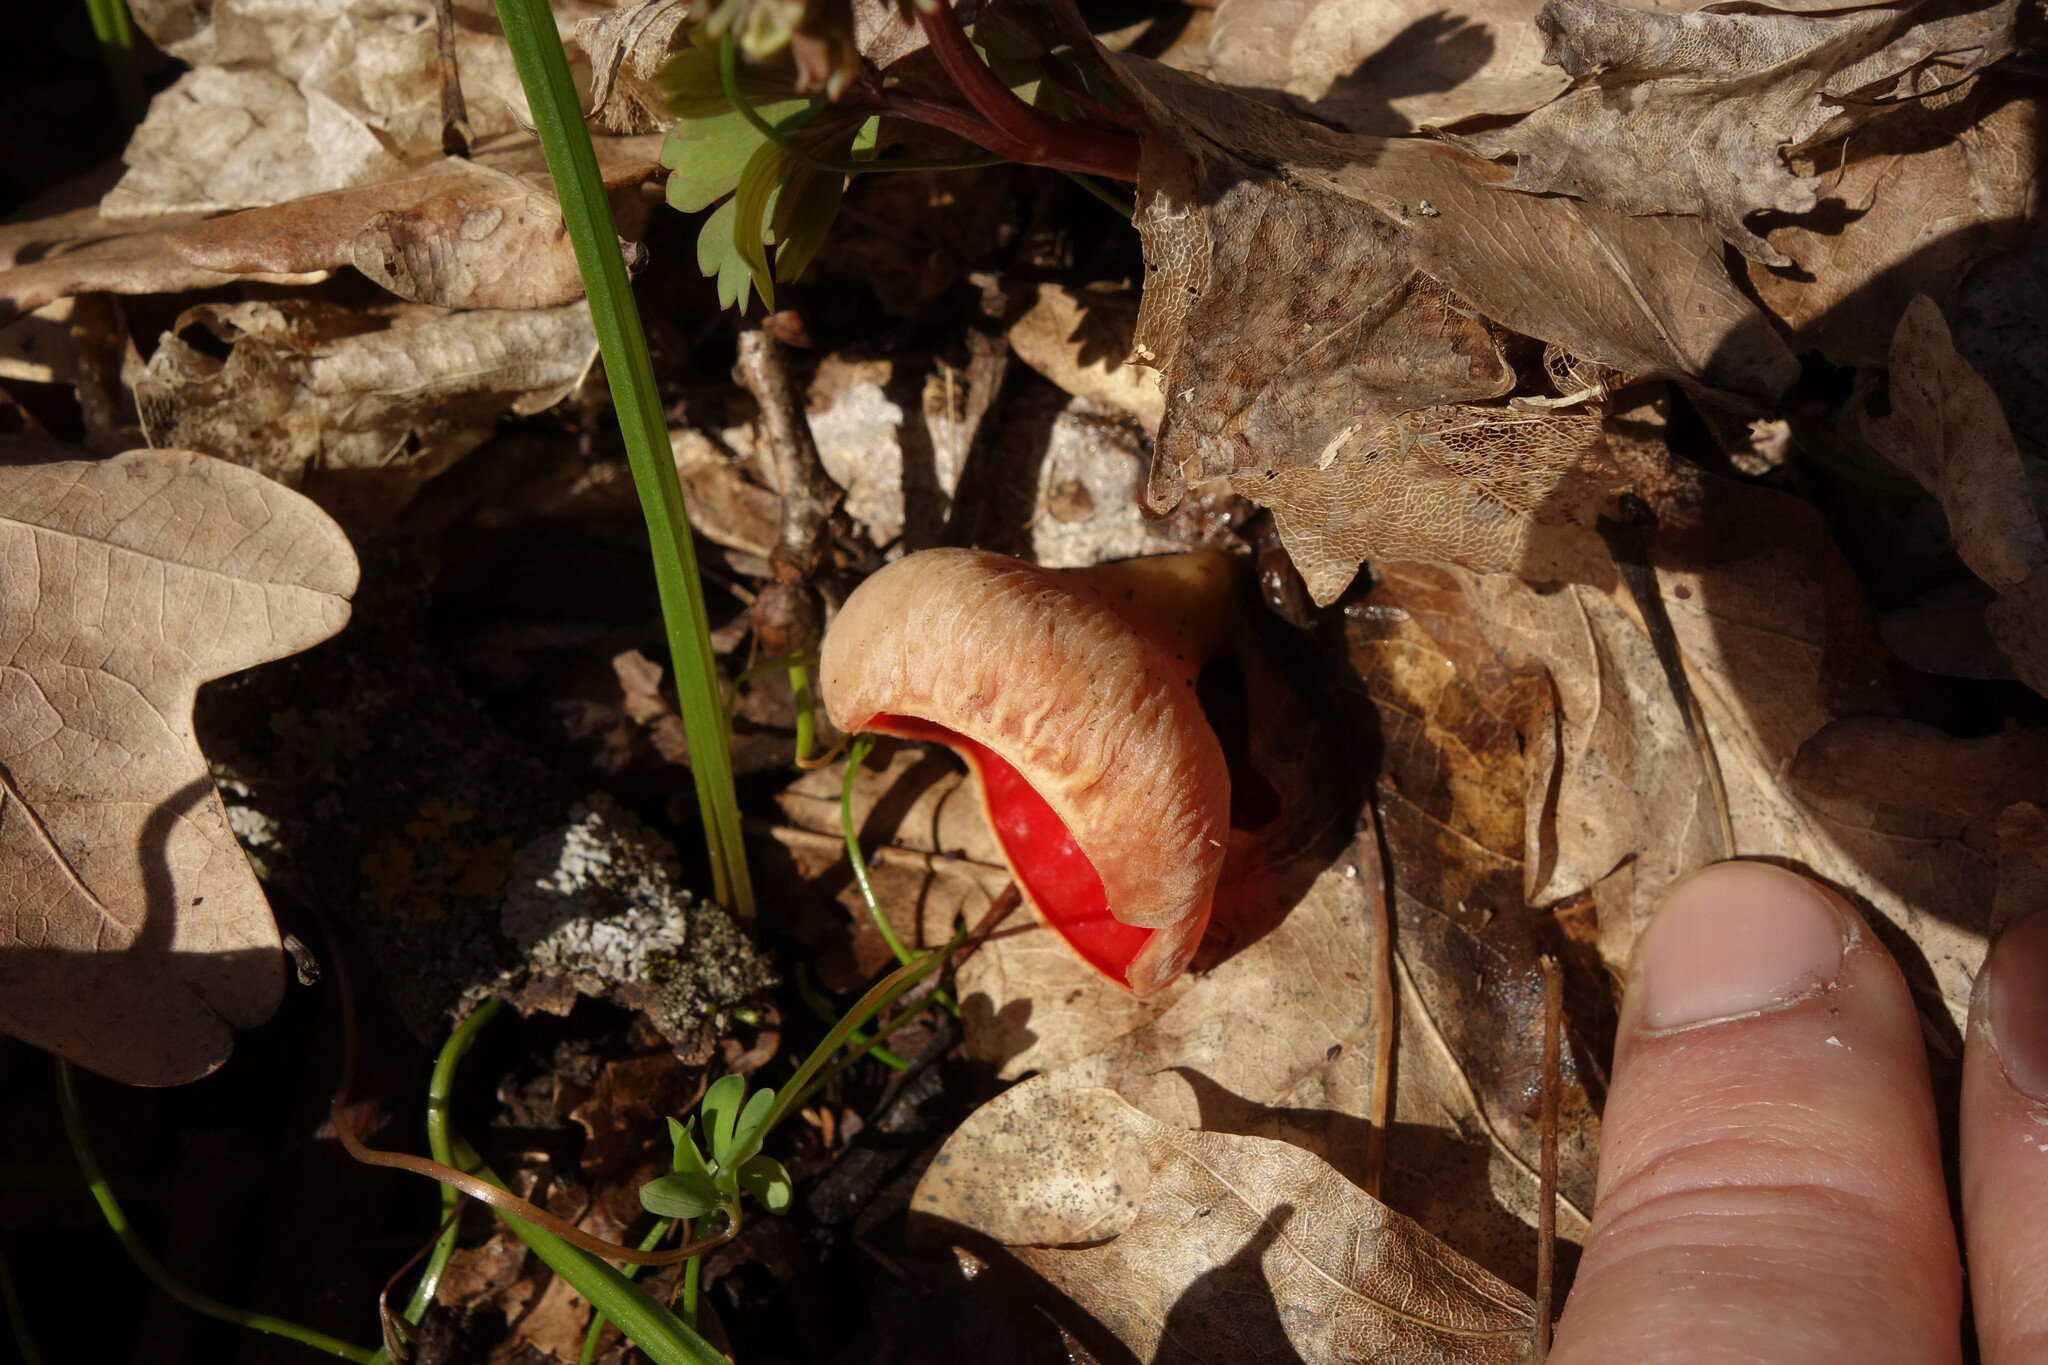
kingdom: Fungi
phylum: Ascomycota
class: Pezizomycetes
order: Pezizales
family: Sarcoscyphaceae
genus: Sarcoscypha
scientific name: Sarcoscypha
